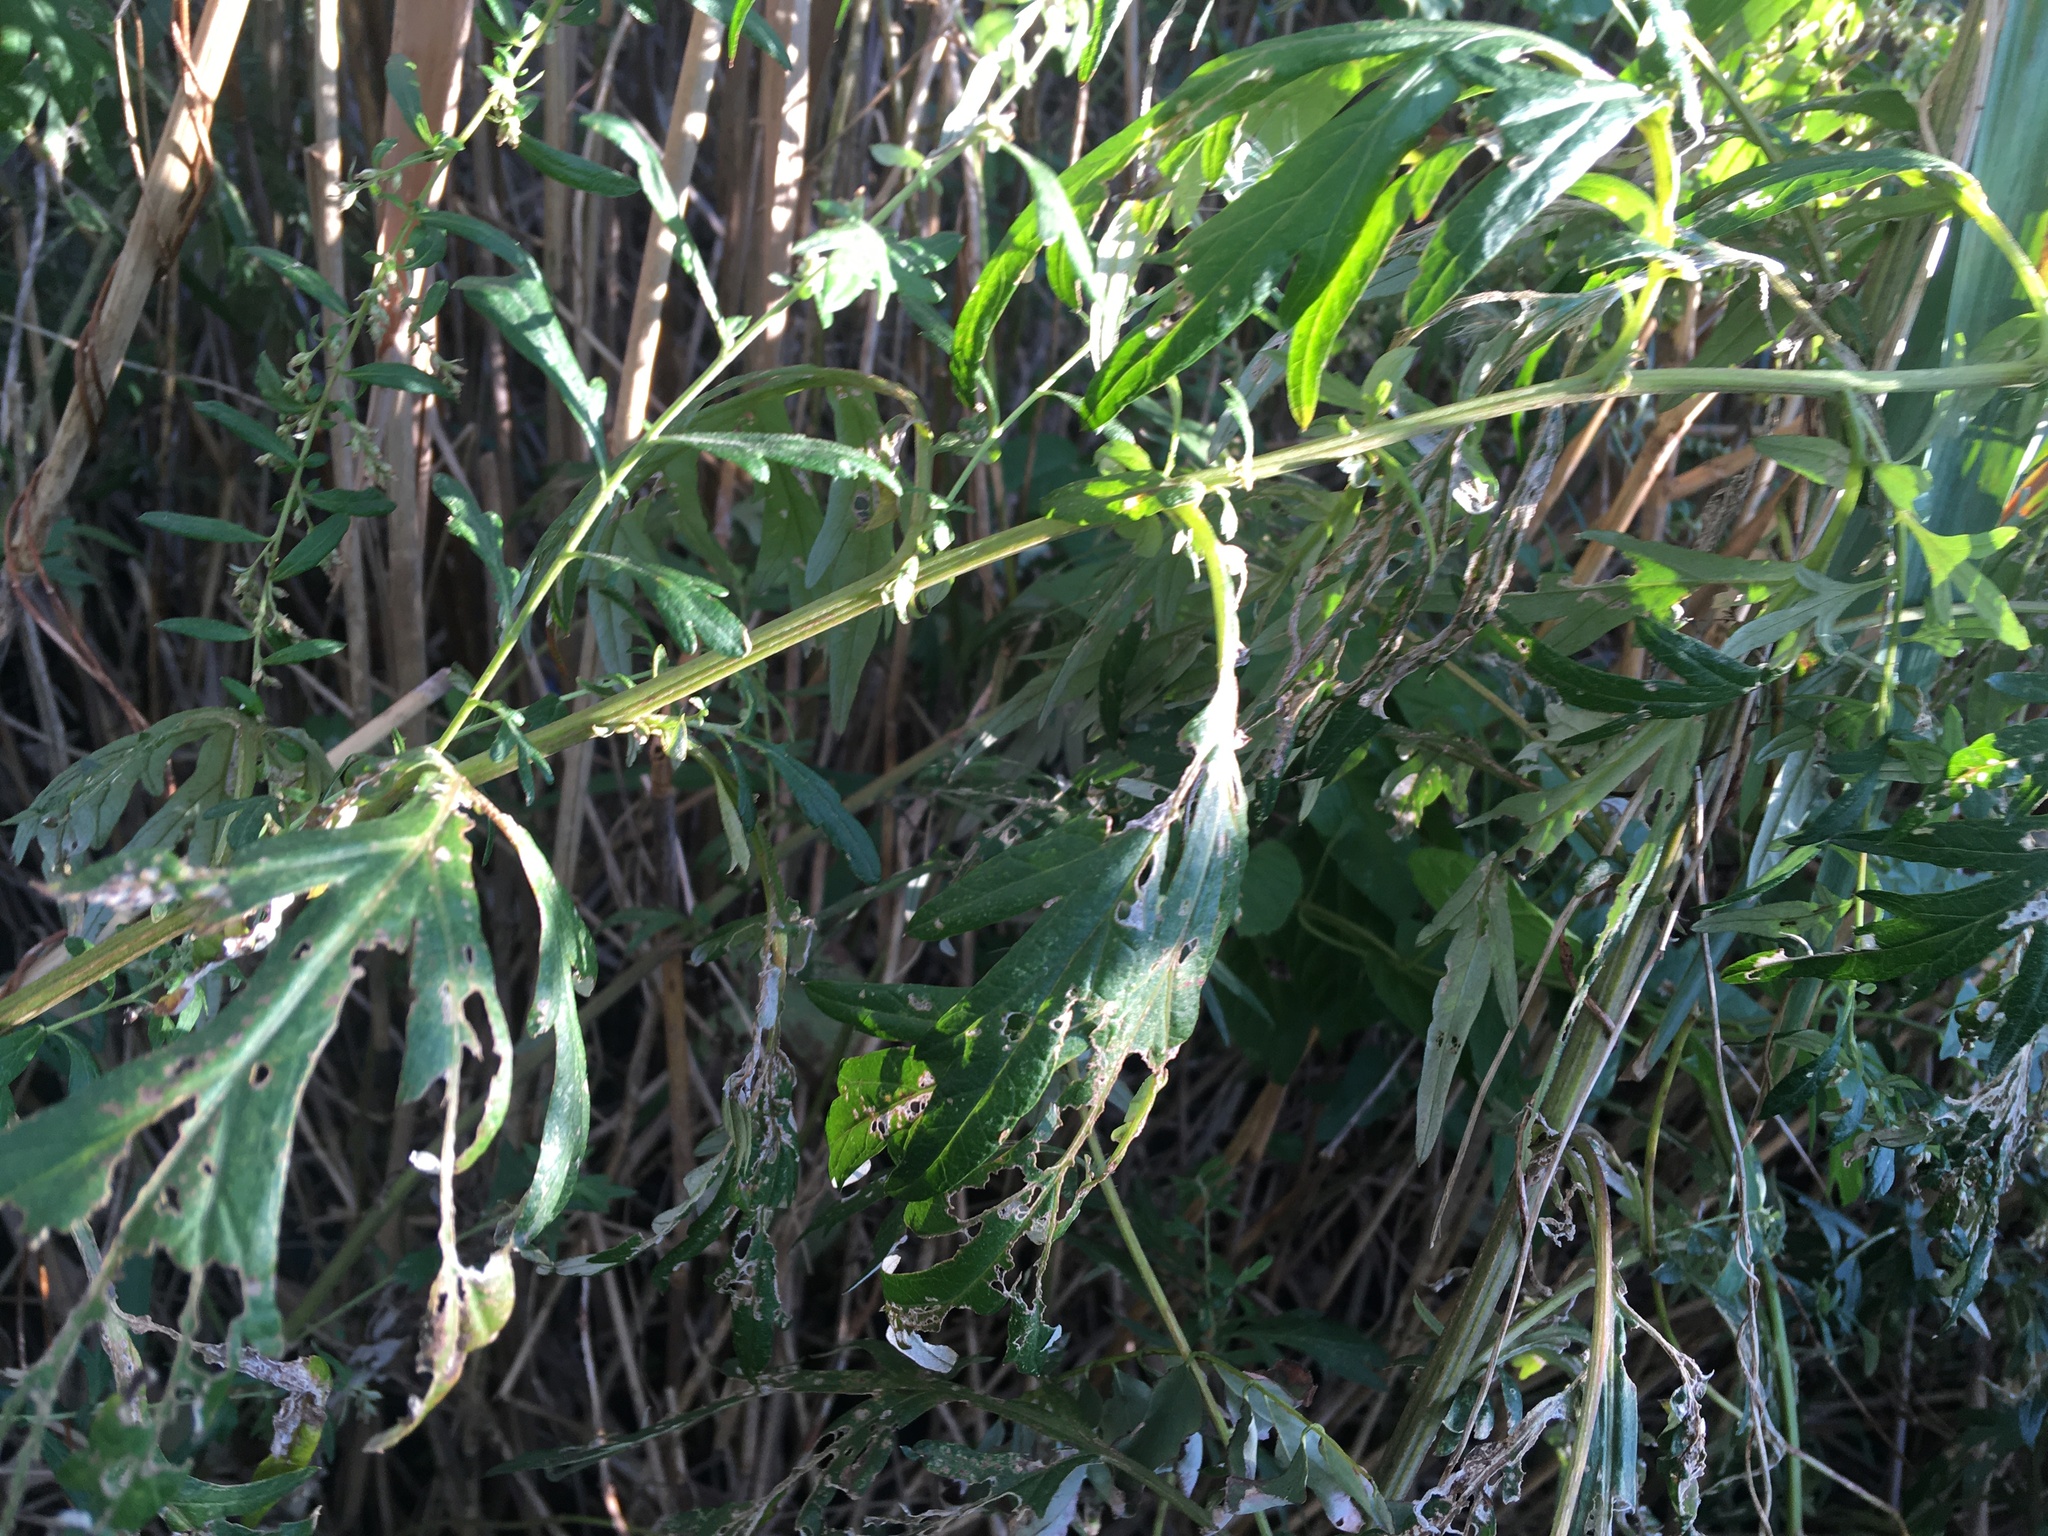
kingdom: Plantae
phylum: Tracheophyta
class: Magnoliopsida
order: Asterales
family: Asteraceae
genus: Artemisia
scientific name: Artemisia vulgaris
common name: Mugwort
